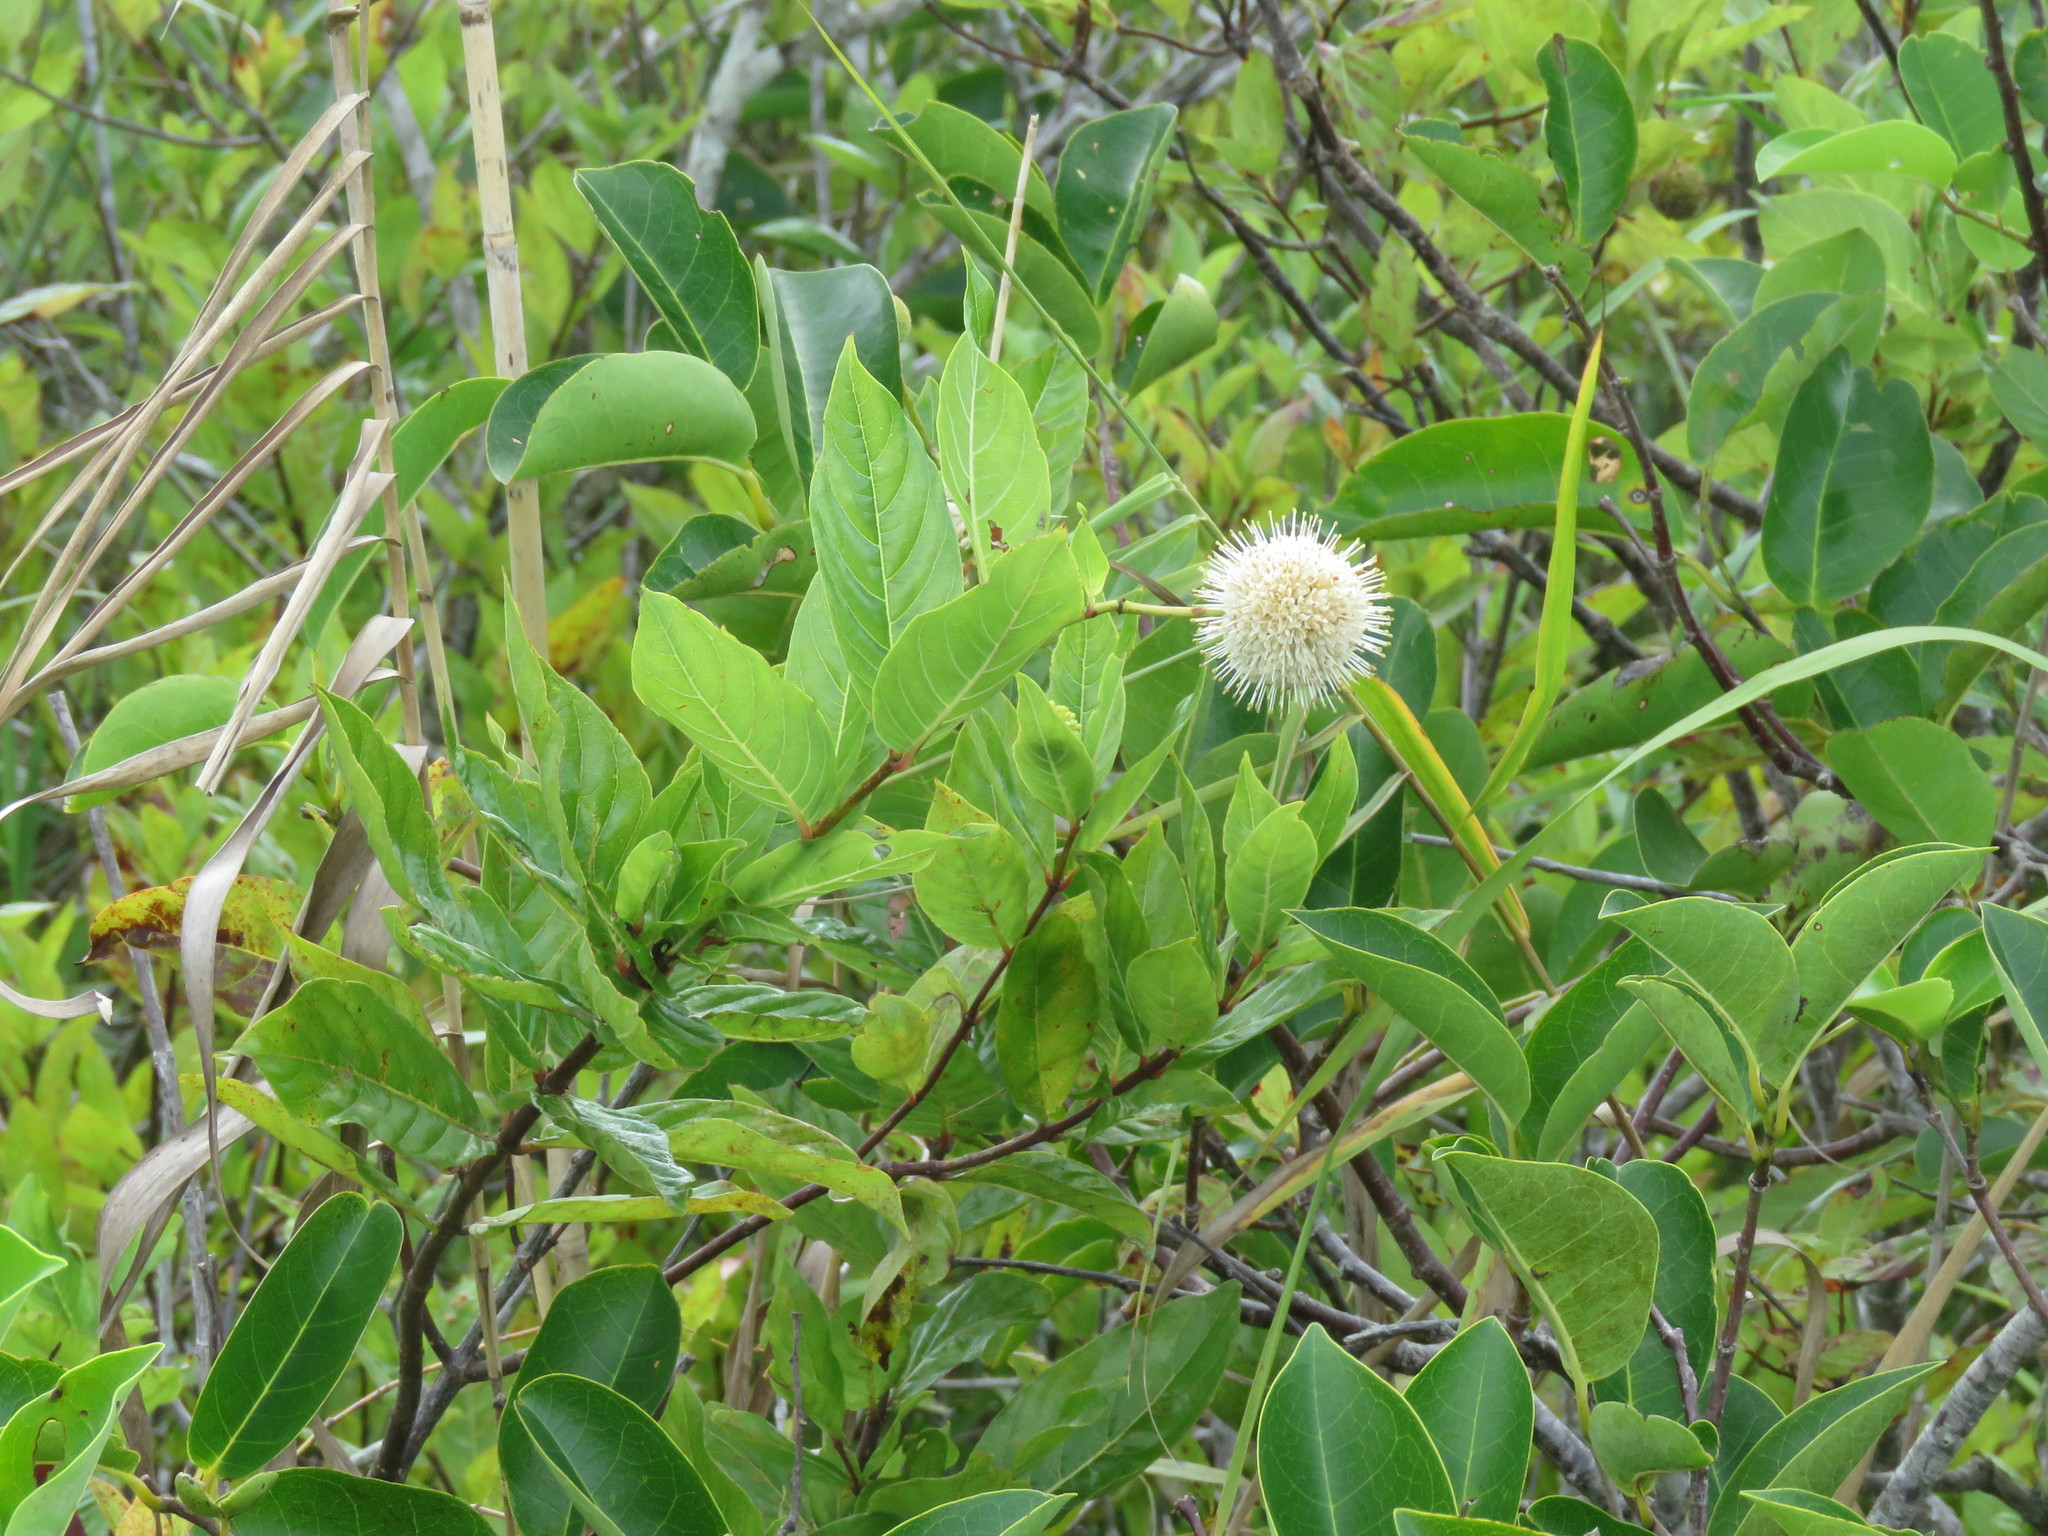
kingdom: Plantae
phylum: Tracheophyta
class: Magnoliopsida
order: Gentianales
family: Rubiaceae
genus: Cephalanthus
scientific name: Cephalanthus occidentalis
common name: Button-willow
